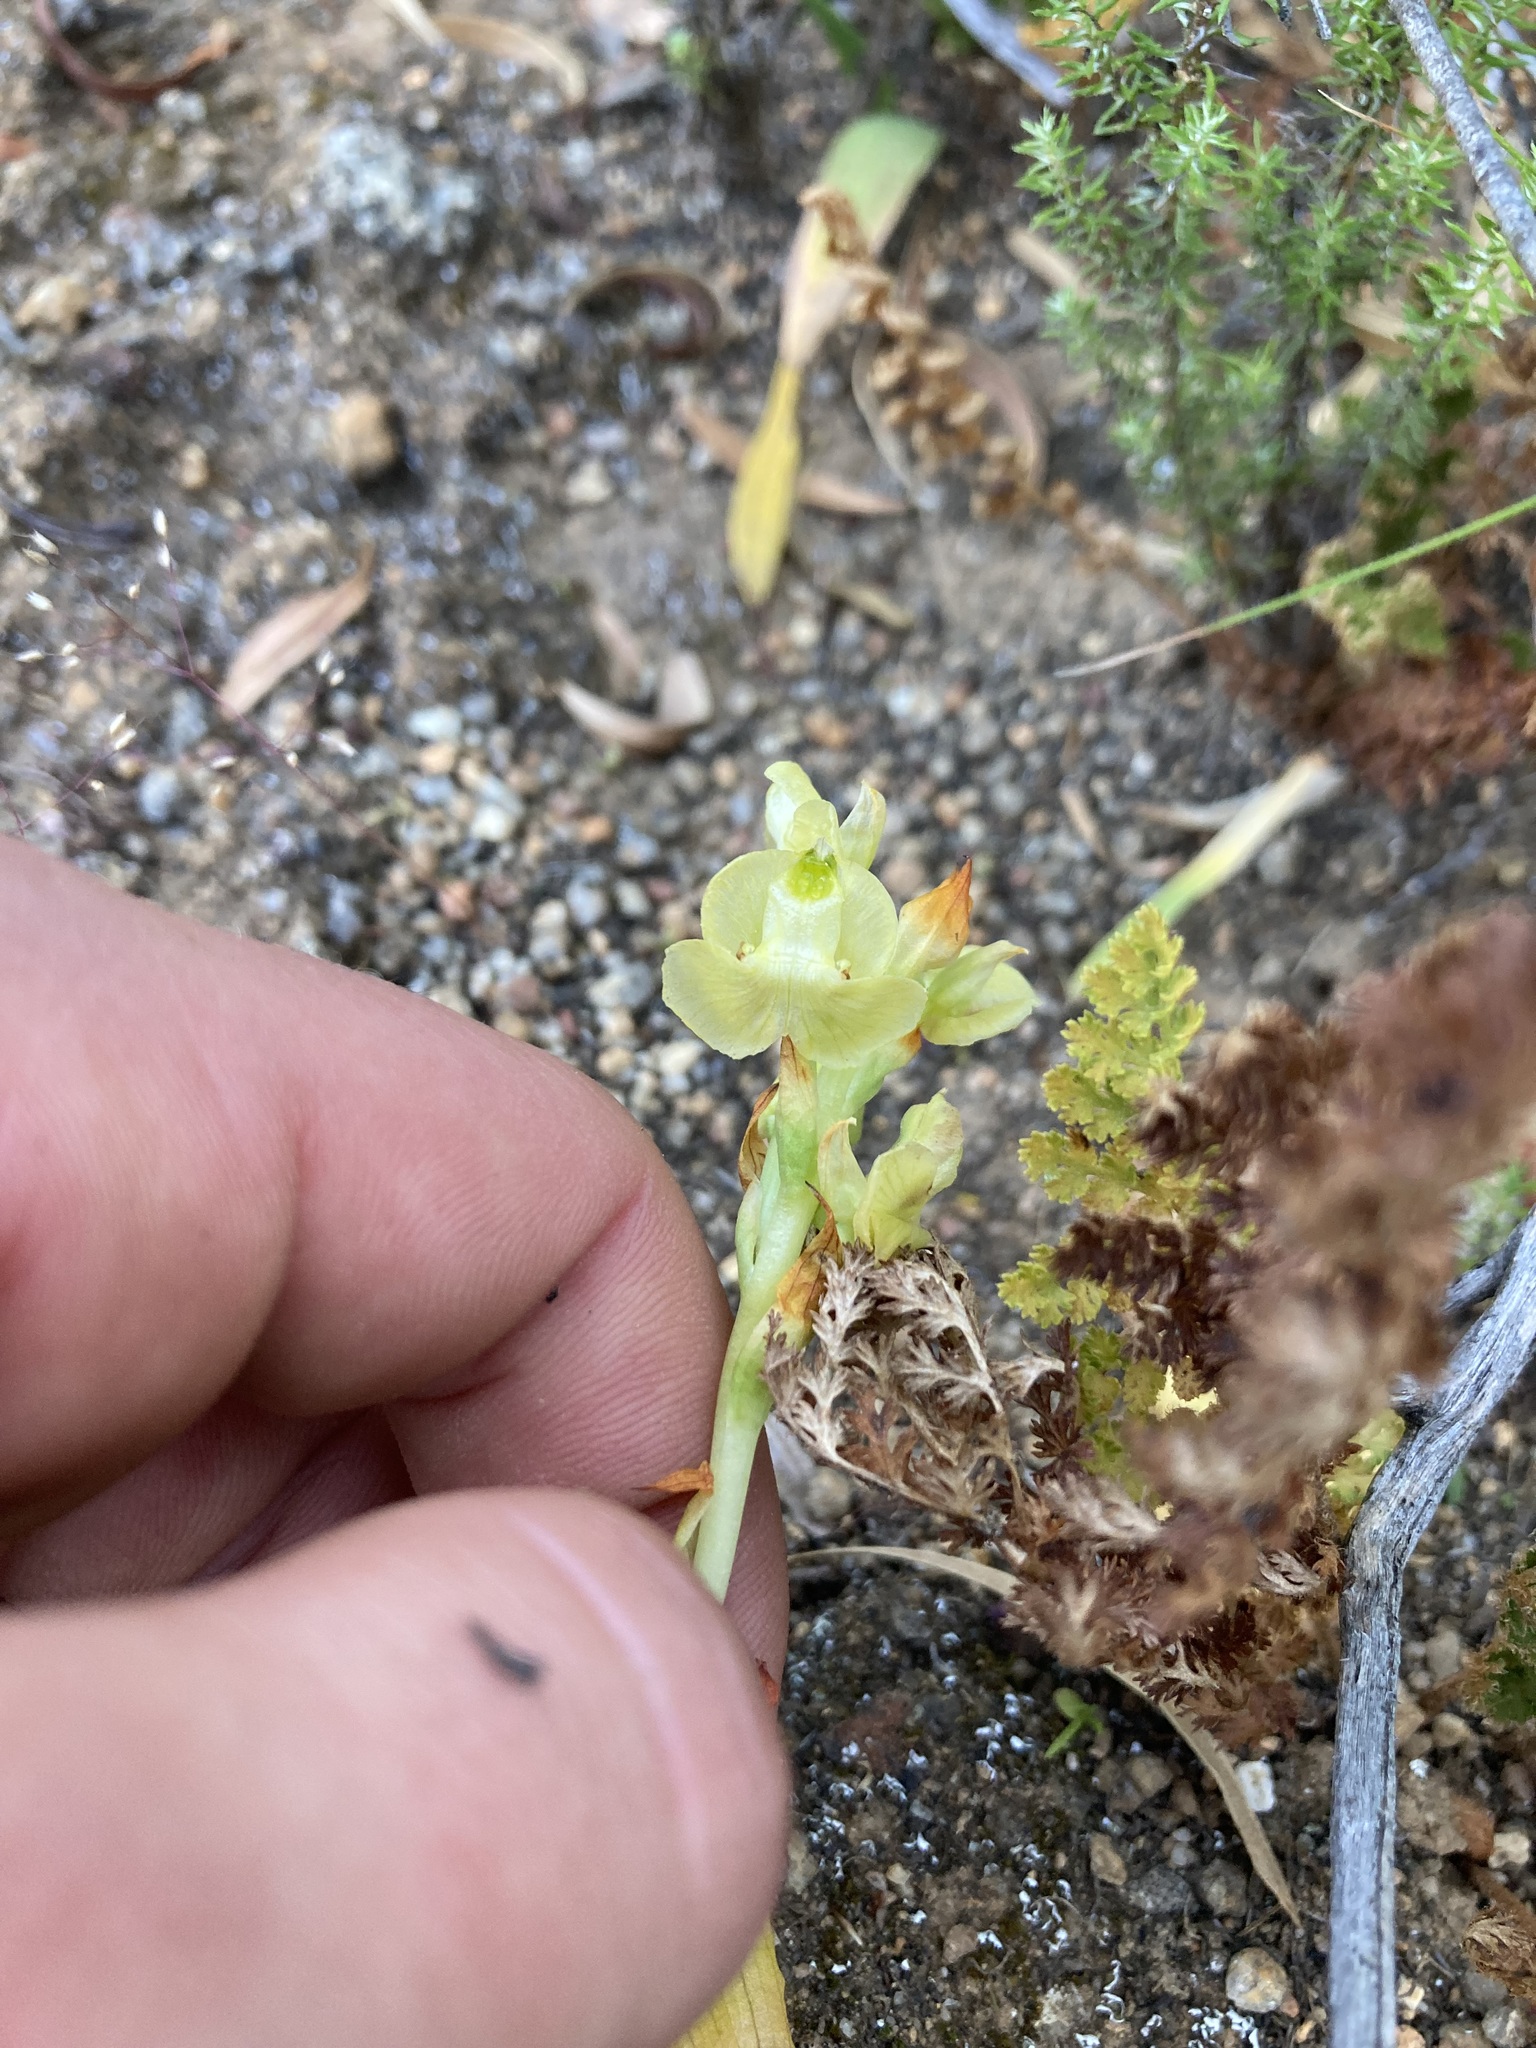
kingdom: Plantae
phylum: Tracheophyta
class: Liliopsida
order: Asparagales
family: Orchidaceae
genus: Pterygodium
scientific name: Pterygodium alatum
